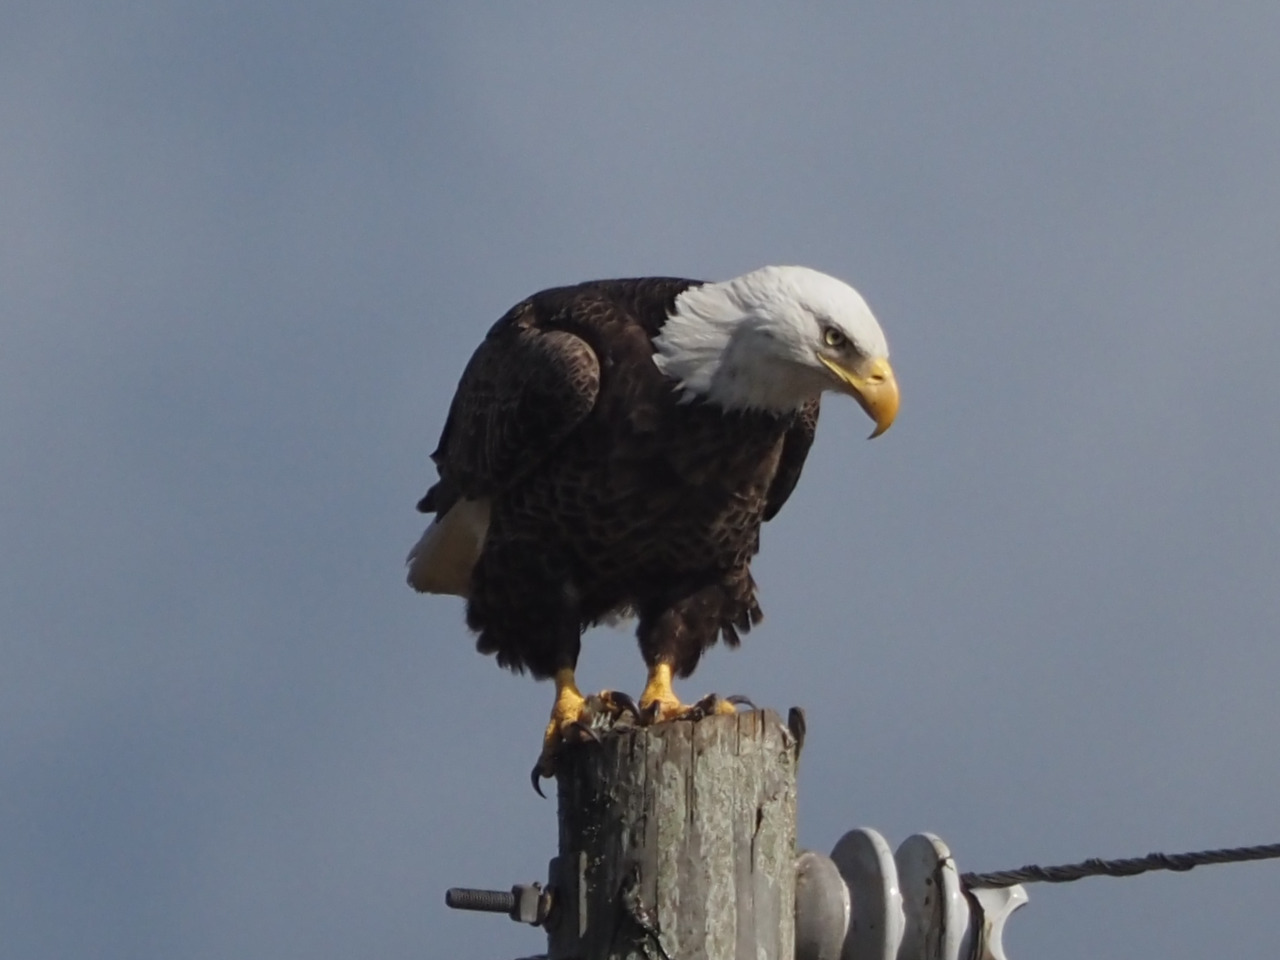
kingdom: Animalia
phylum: Chordata
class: Aves
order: Accipitriformes
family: Accipitridae
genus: Haliaeetus
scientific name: Haliaeetus leucocephalus
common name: Bald eagle
